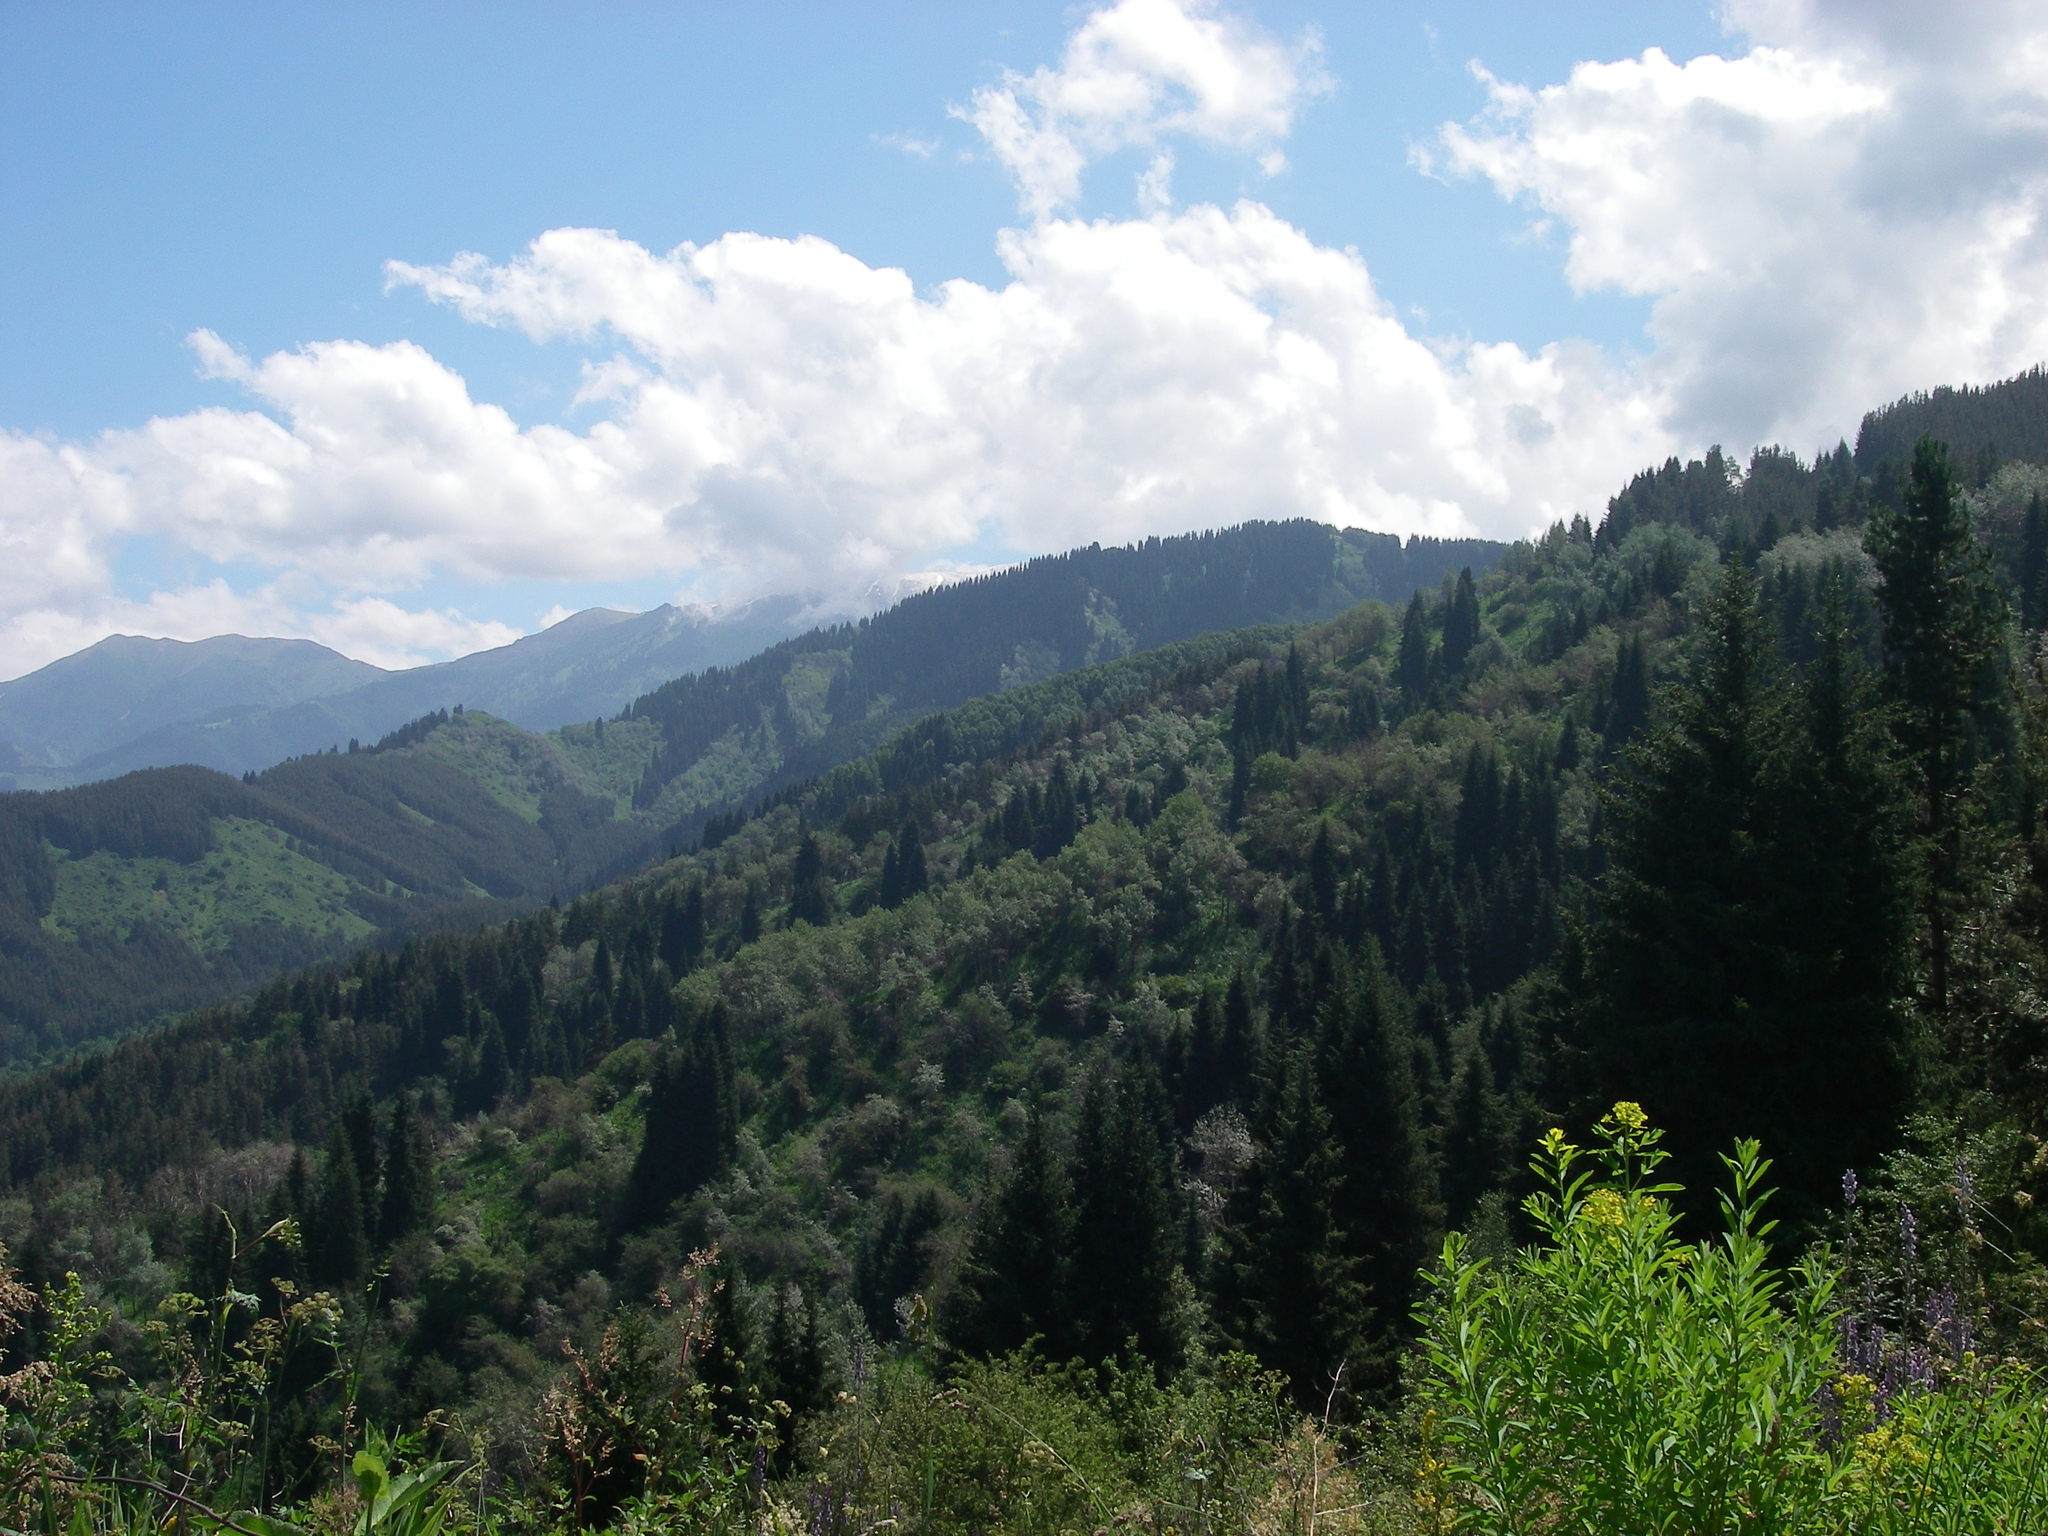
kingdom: Plantae
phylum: Tracheophyta
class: Magnoliopsida
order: Malpighiales
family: Euphorbiaceae
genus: Euphorbia
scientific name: Euphorbia lamprocarpa
